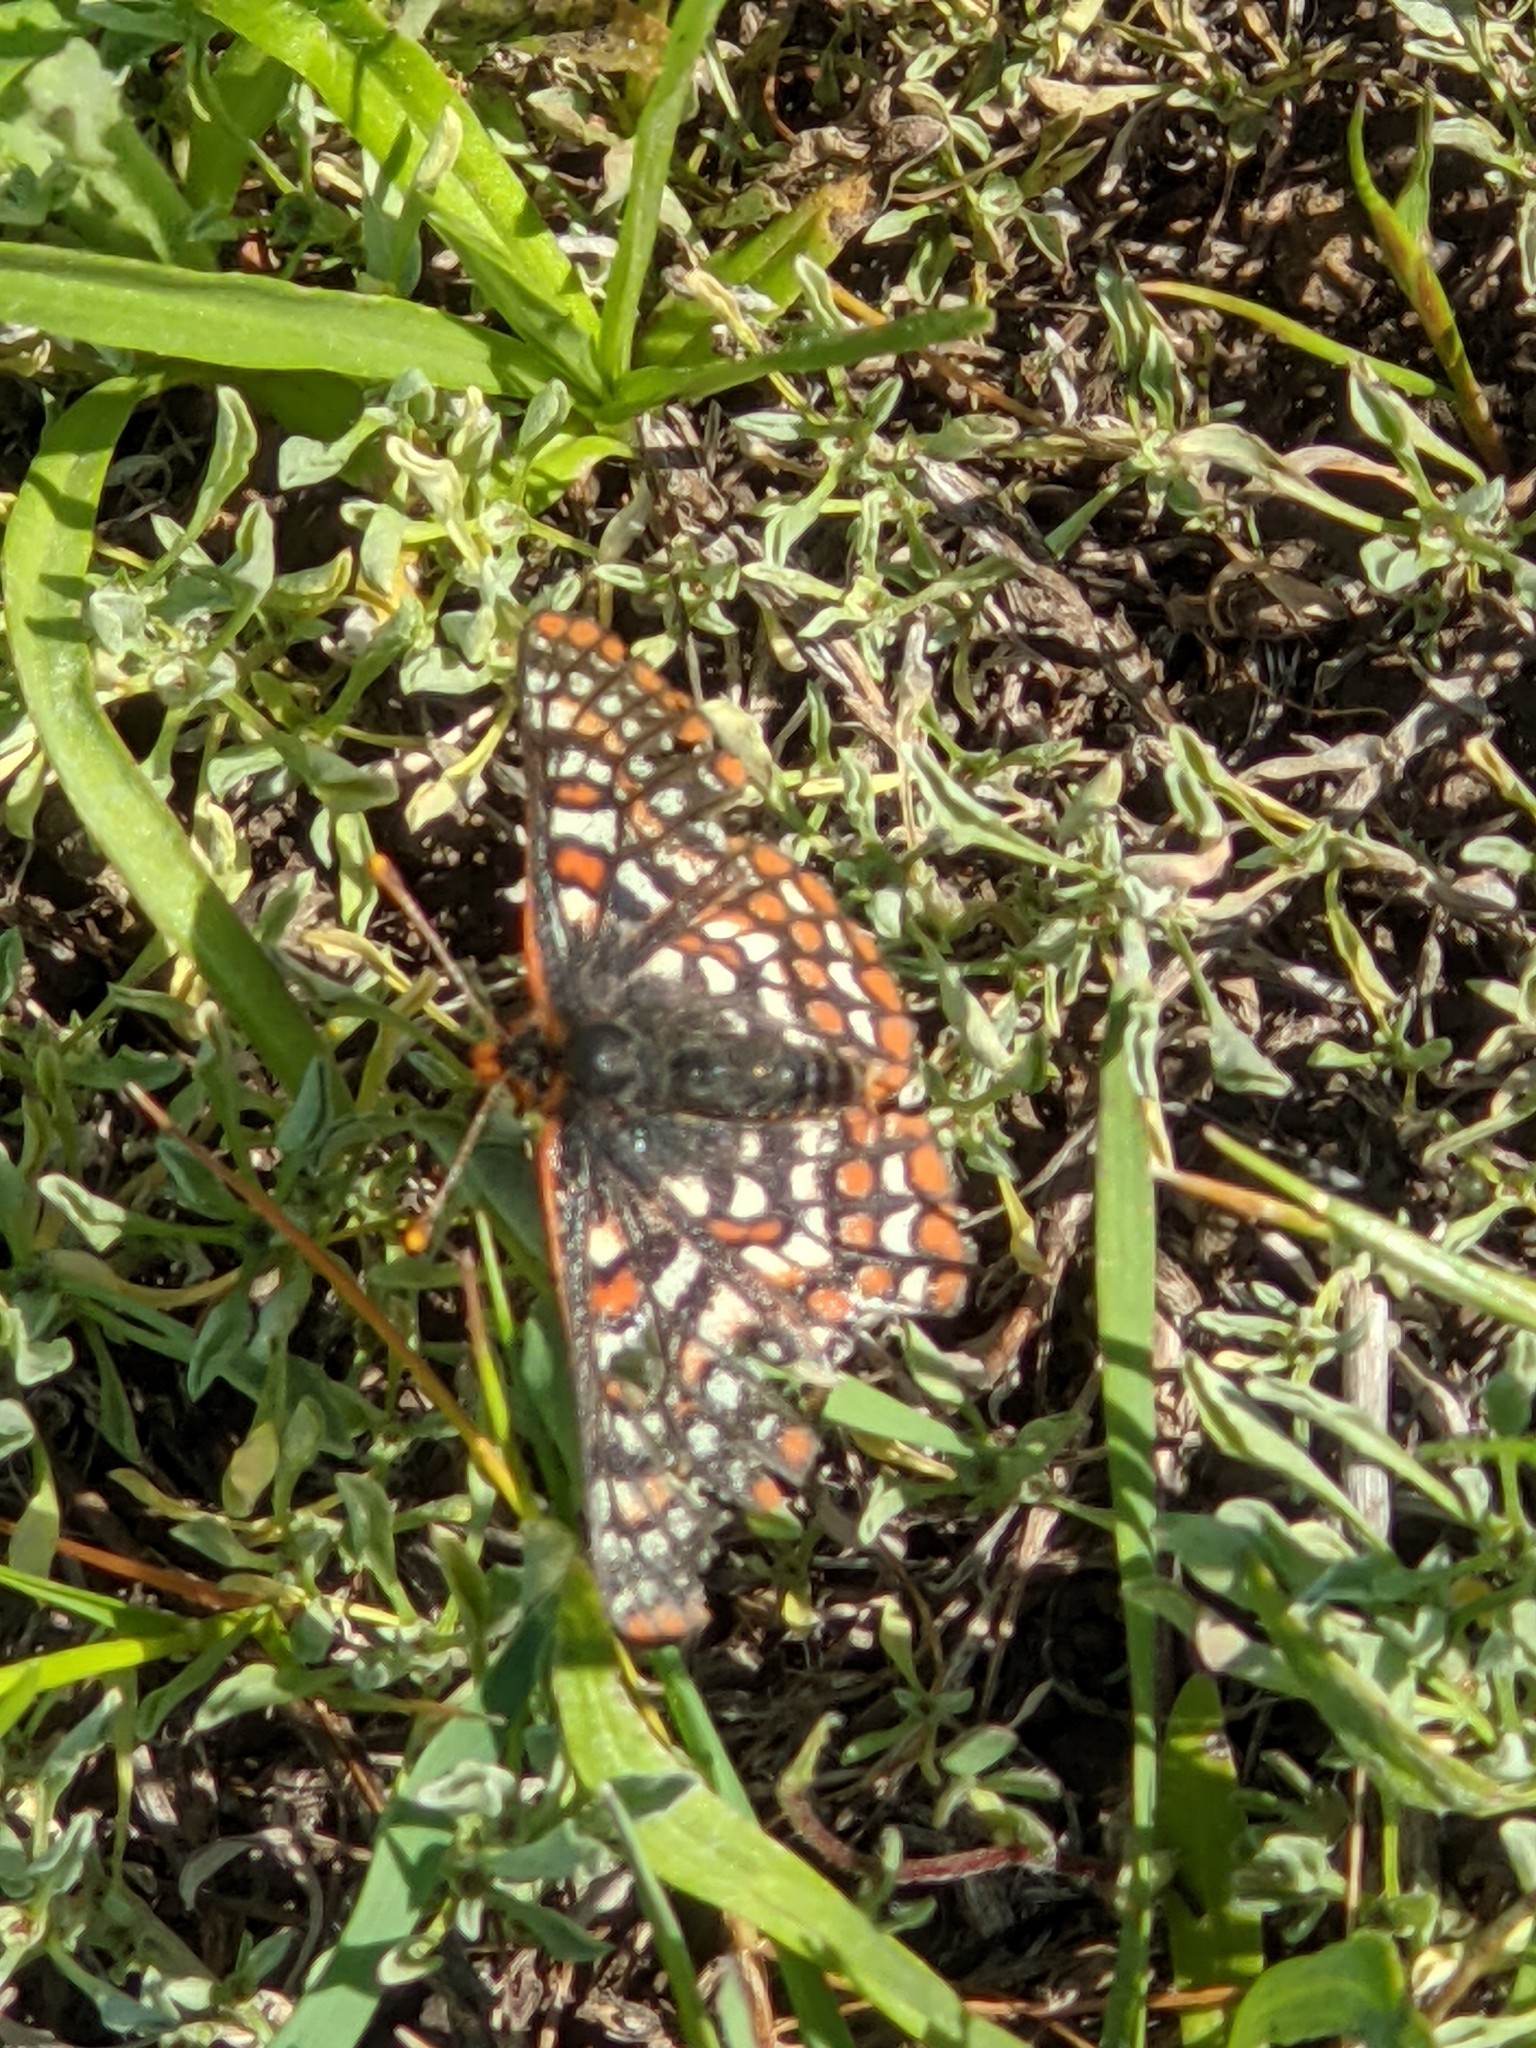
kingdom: Animalia
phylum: Arthropoda
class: Insecta
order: Lepidoptera
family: Nymphalidae
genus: Occidryas
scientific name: Occidryas editha
